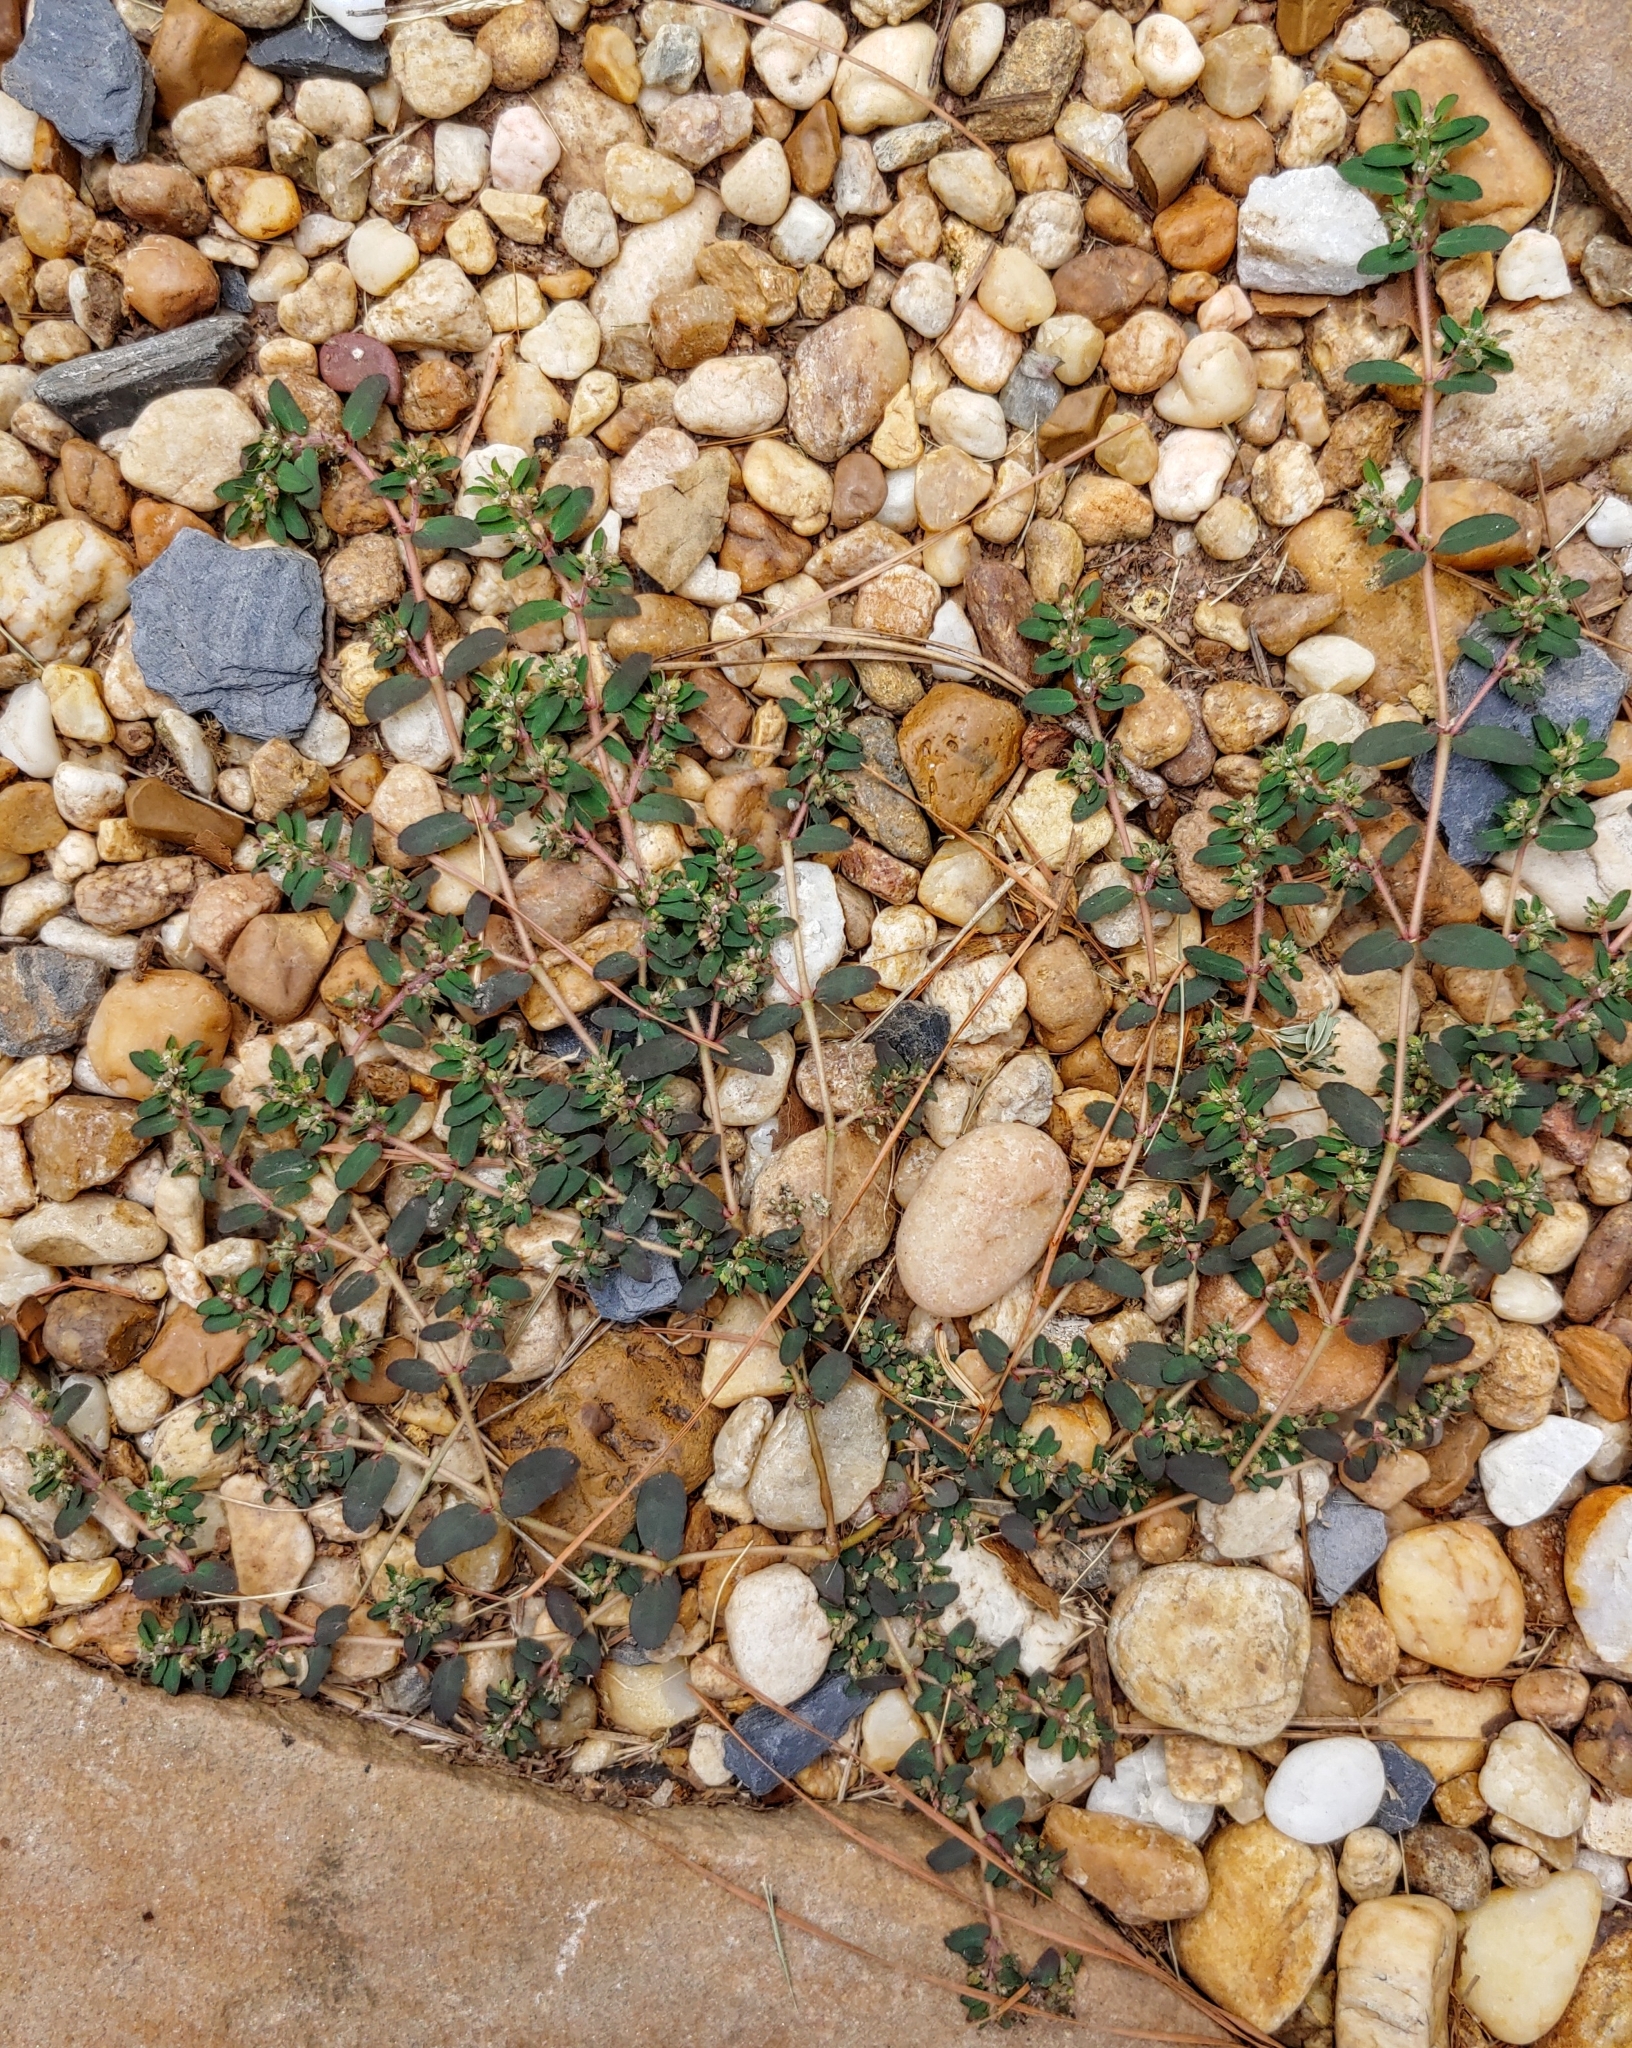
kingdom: Plantae
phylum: Tracheophyta
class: Magnoliopsida
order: Malpighiales
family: Euphorbiaceae
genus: Euphorbia
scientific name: Euphorbia maculata
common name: Spotted spurge
